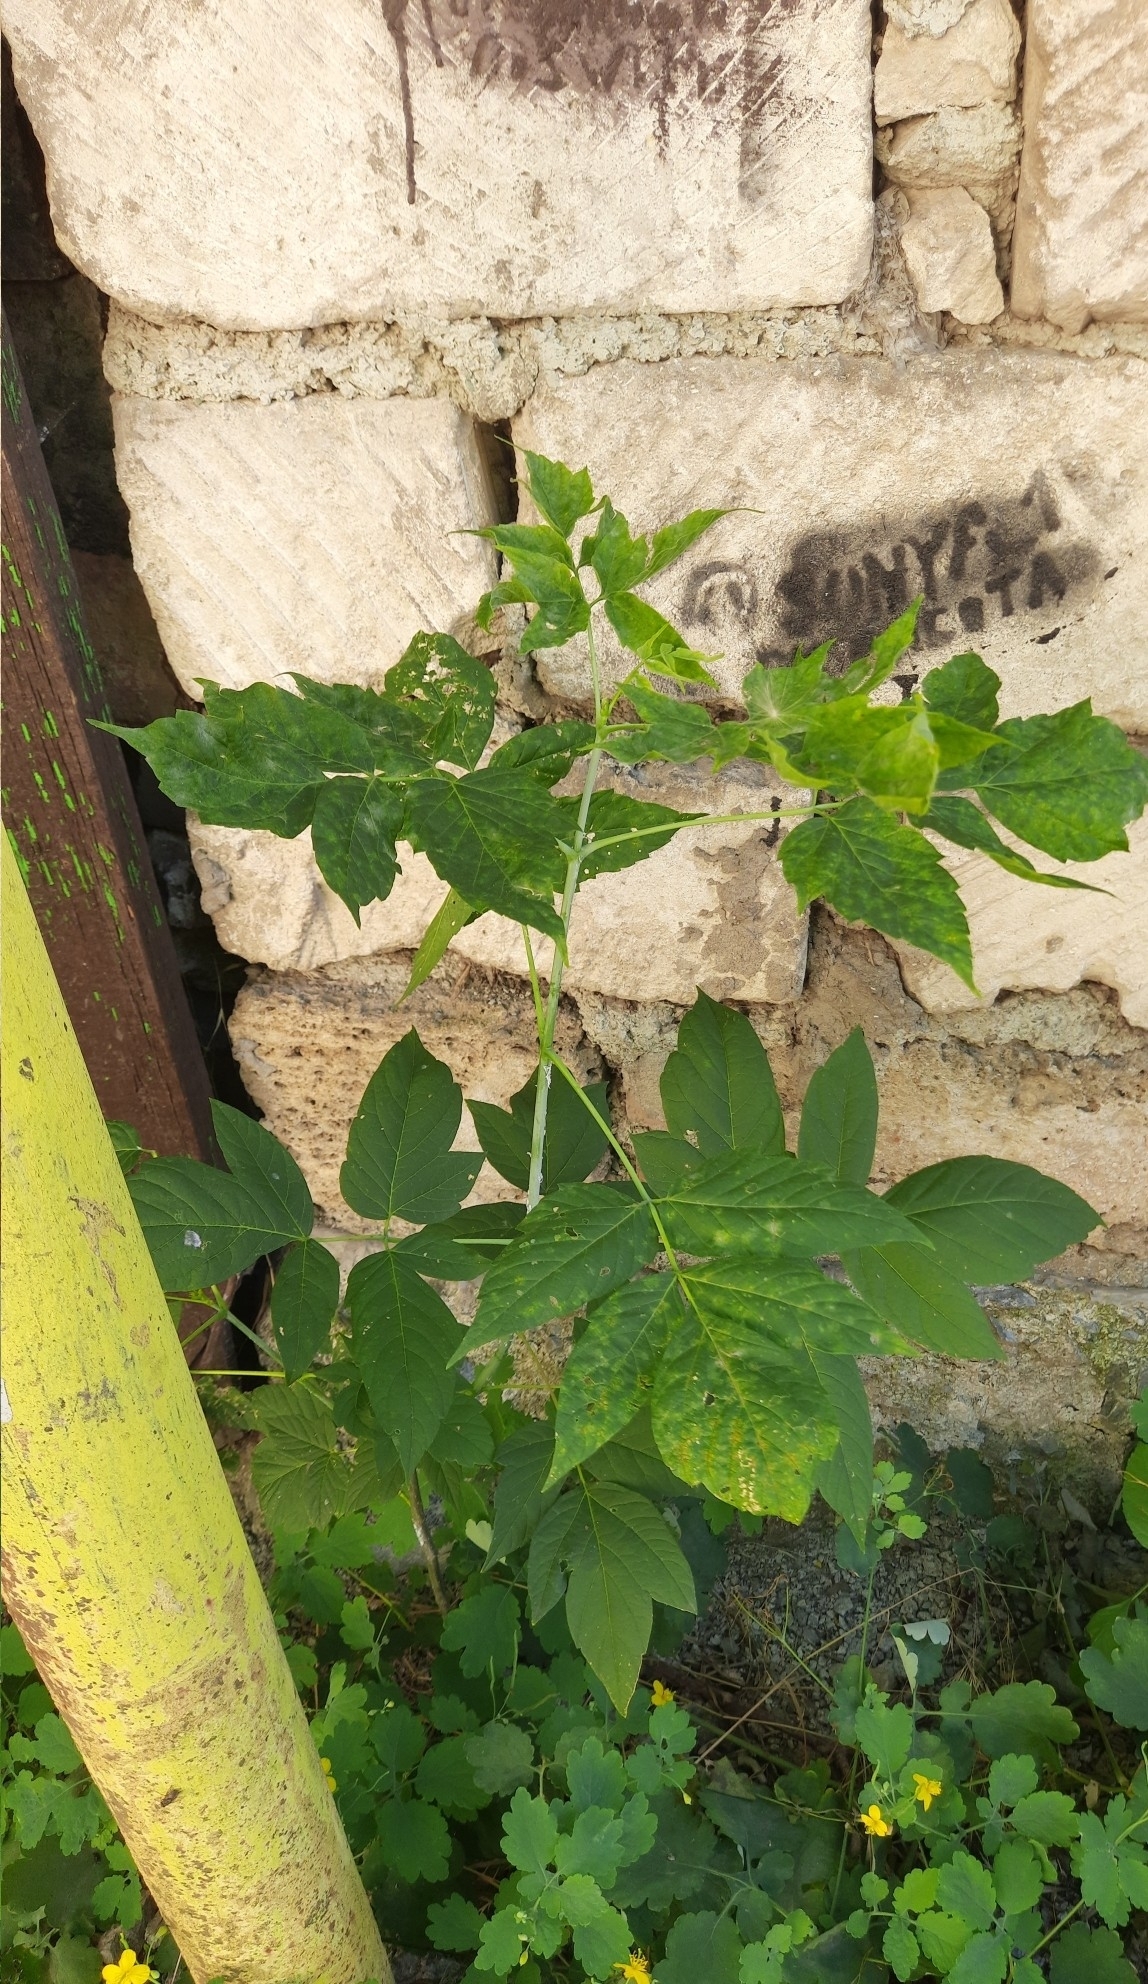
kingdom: Plantae
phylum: Tracheophyta
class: Magnoliopsida
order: Sapindales
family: Sapindaceae
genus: Acer
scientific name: Acer negundo
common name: Ashleaf maple
